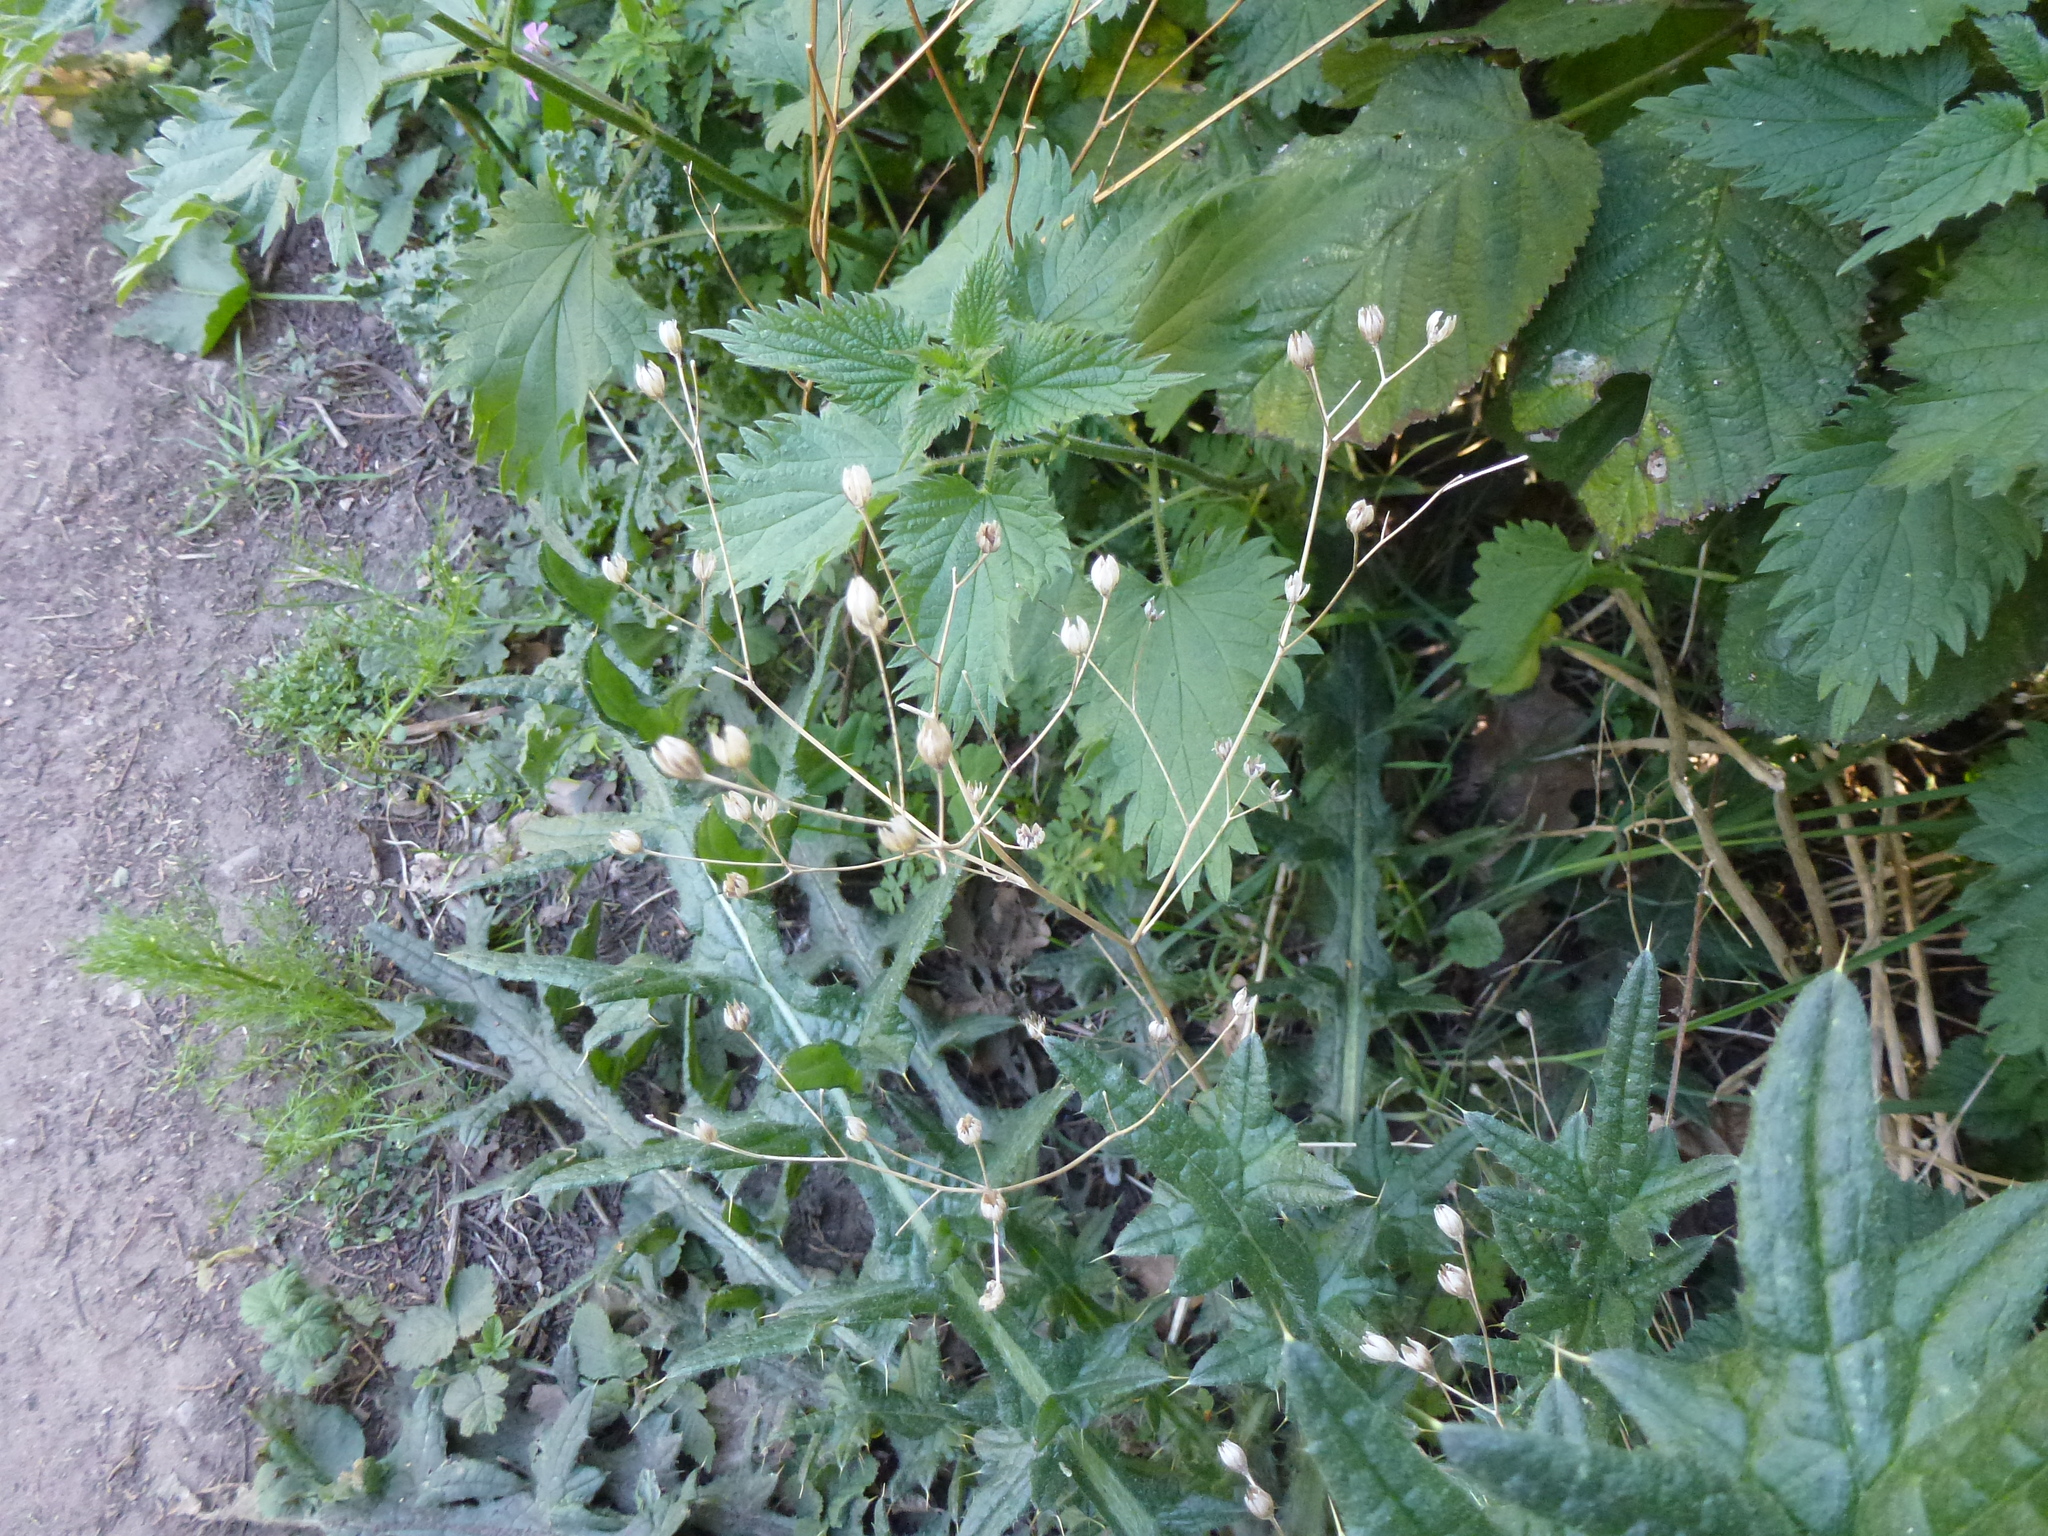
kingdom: Plantae
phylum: Tracheophyta
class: Magnoliopsida
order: Asterales
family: Asteraceae
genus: Lapsana
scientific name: Lapsana communis
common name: Nipplewort
